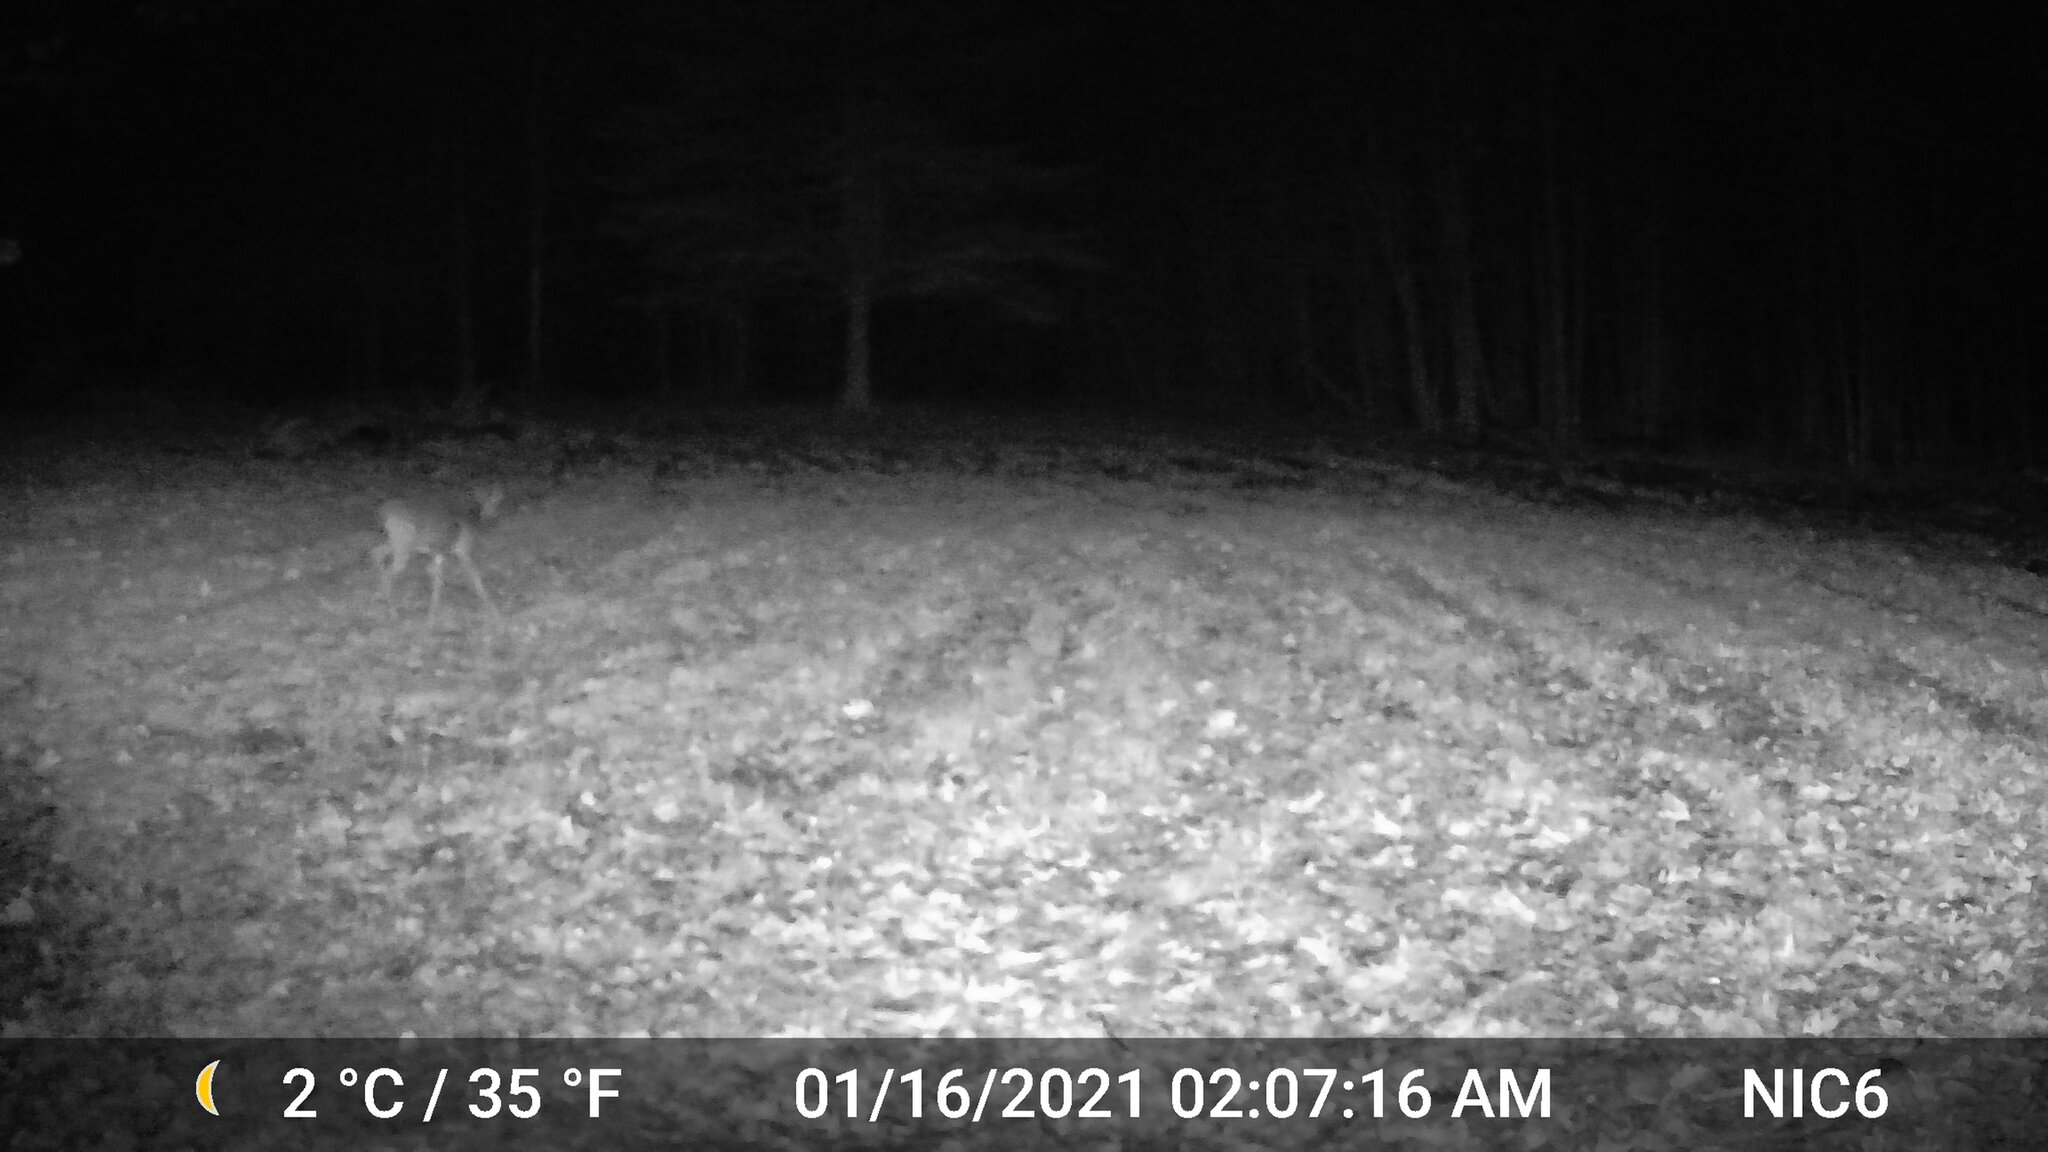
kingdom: Animalia
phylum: Chordata
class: Mammalia
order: Artiodactyla
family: Cervidae
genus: Odocoileus
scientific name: Odocoileus virginianus
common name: White-tailed deer
